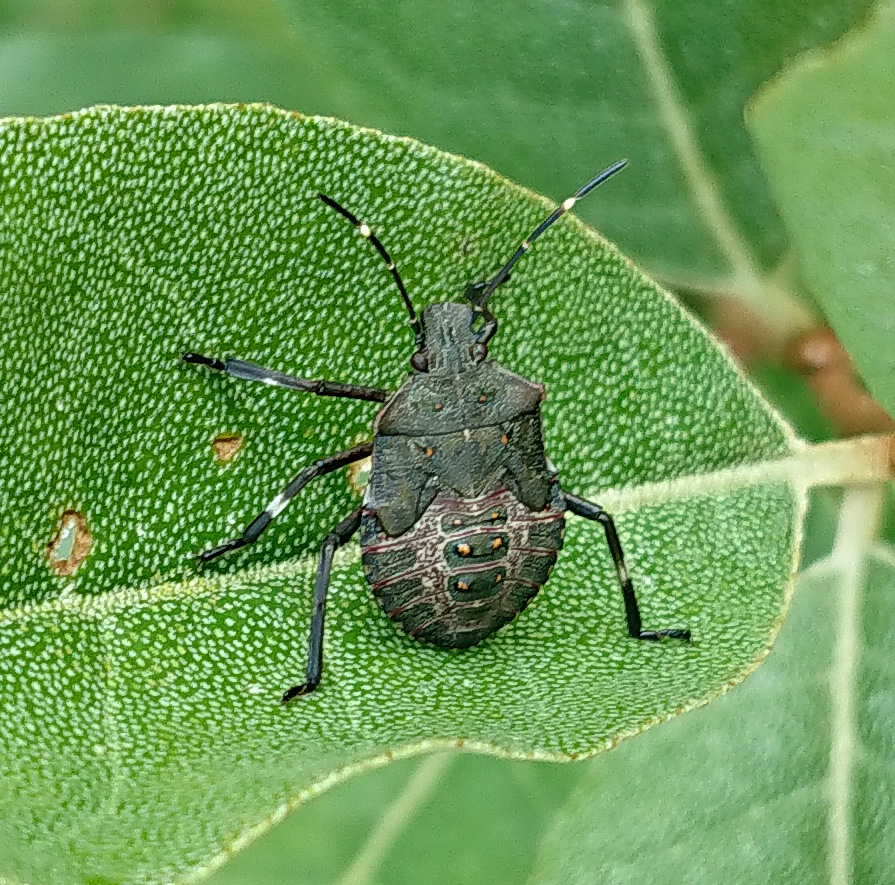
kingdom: Animalia
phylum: Arthropoda
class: Insecta
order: Hemiptera
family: Pentatomidae
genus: Halyomorpha
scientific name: Halyomorpha halys
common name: Brown marmorated stink bug
